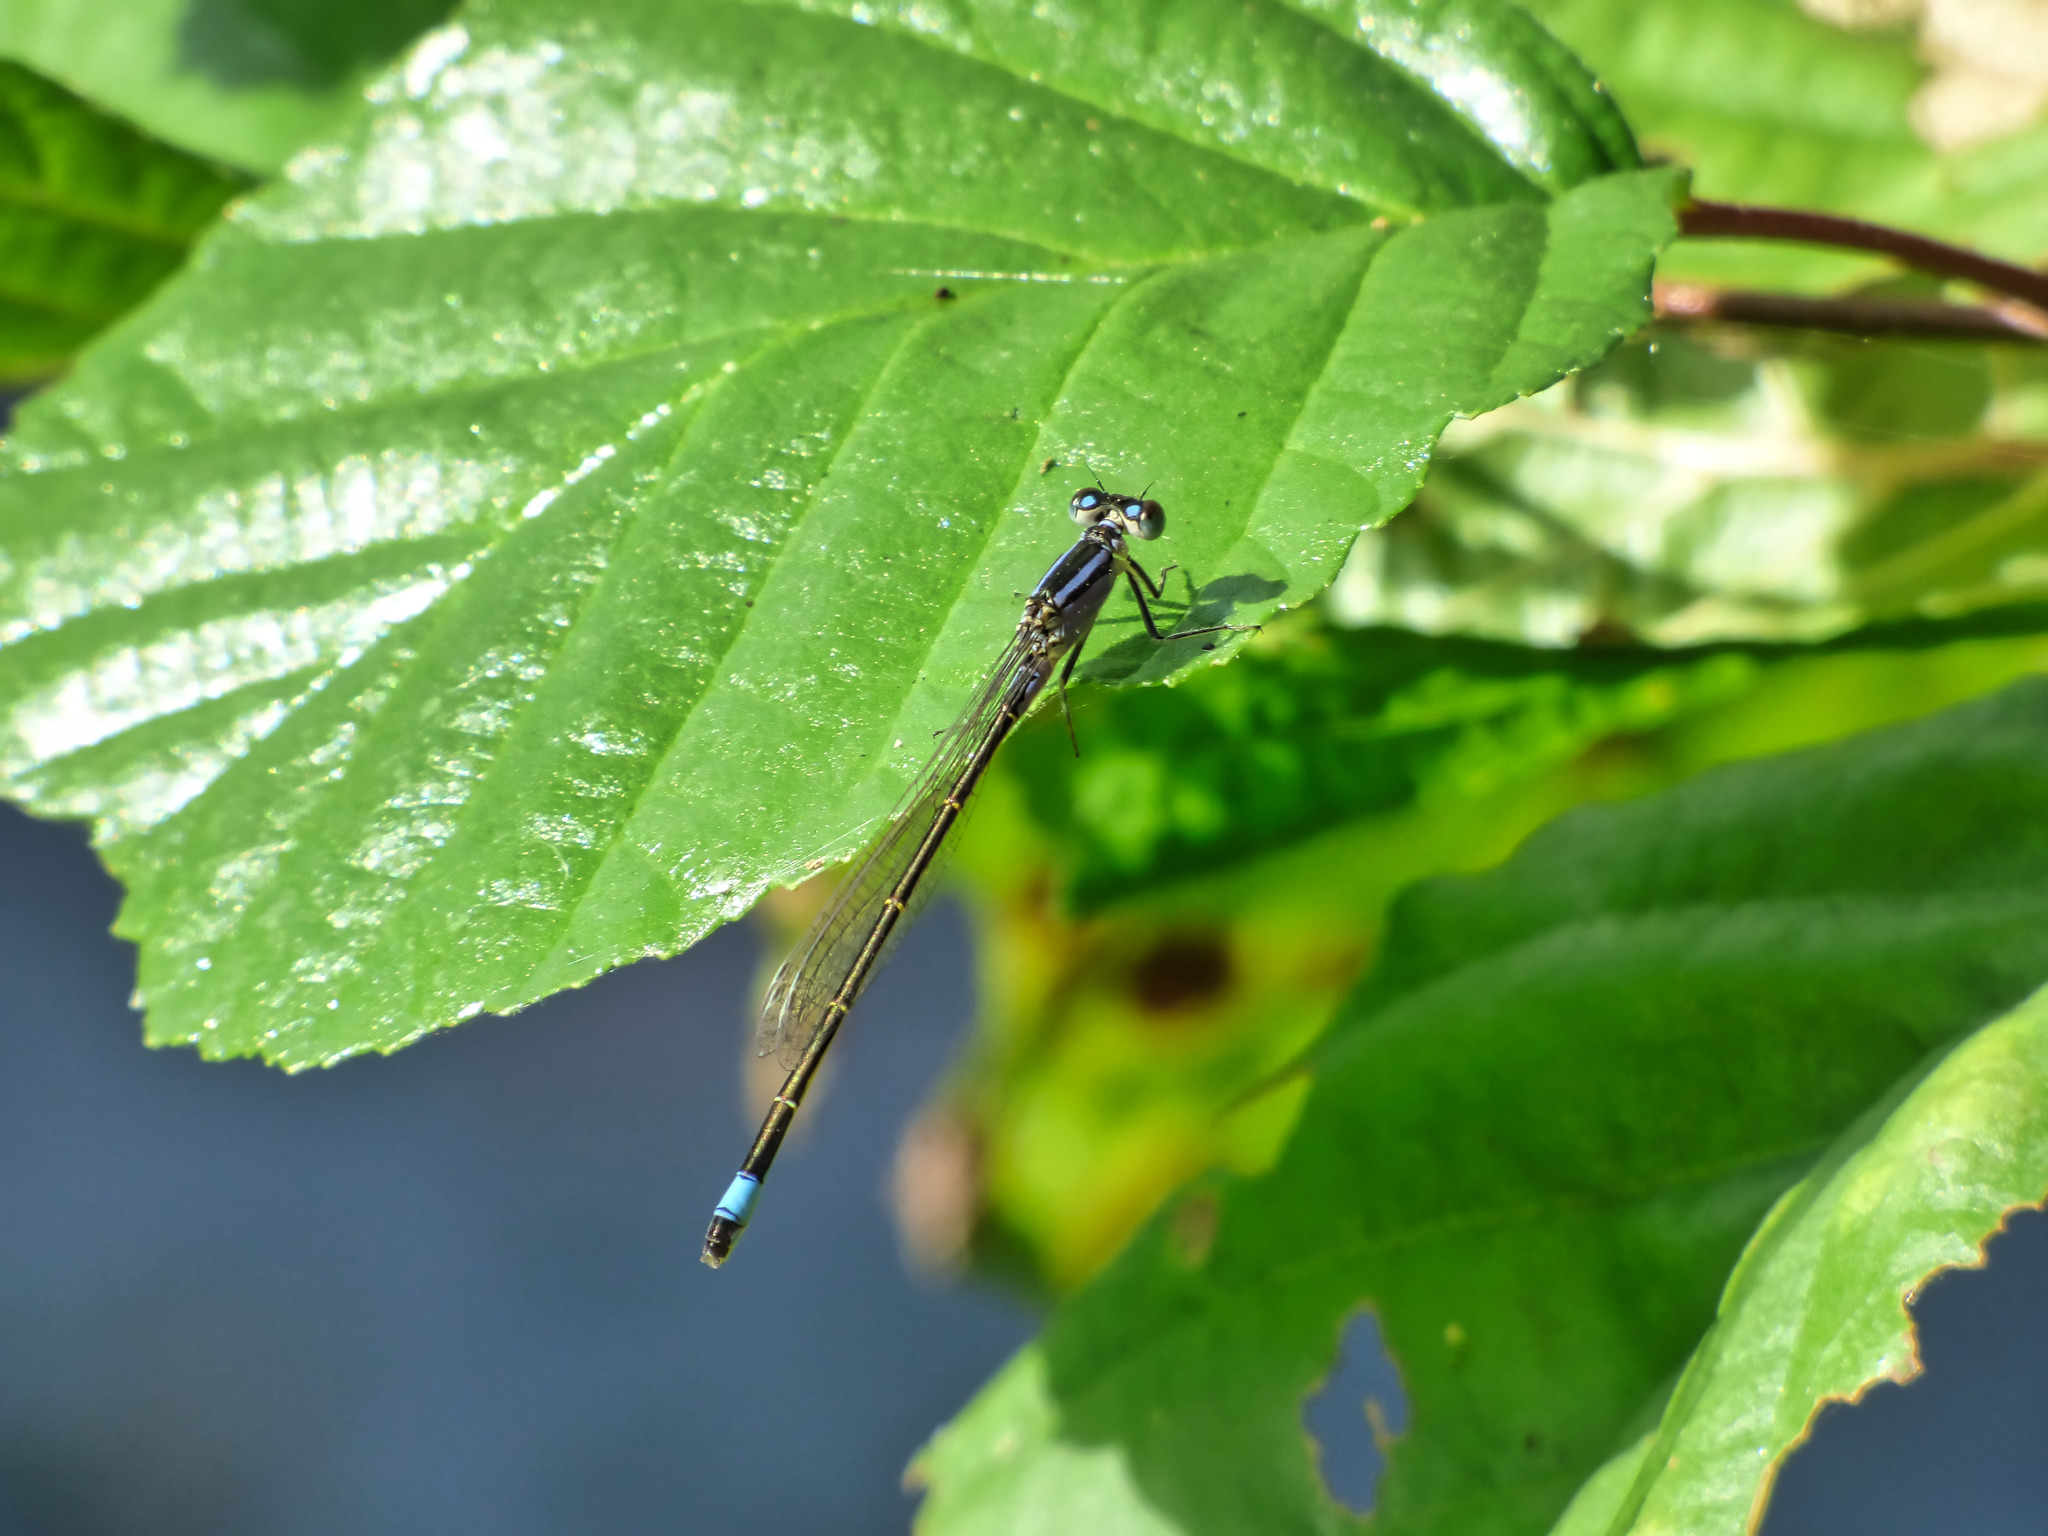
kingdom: Animalia
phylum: Arthropoda
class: Insecta
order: Odonata
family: Coenagrionidae
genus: Ischnura
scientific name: Ischnura elegans
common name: Blue-tailed damselfly
